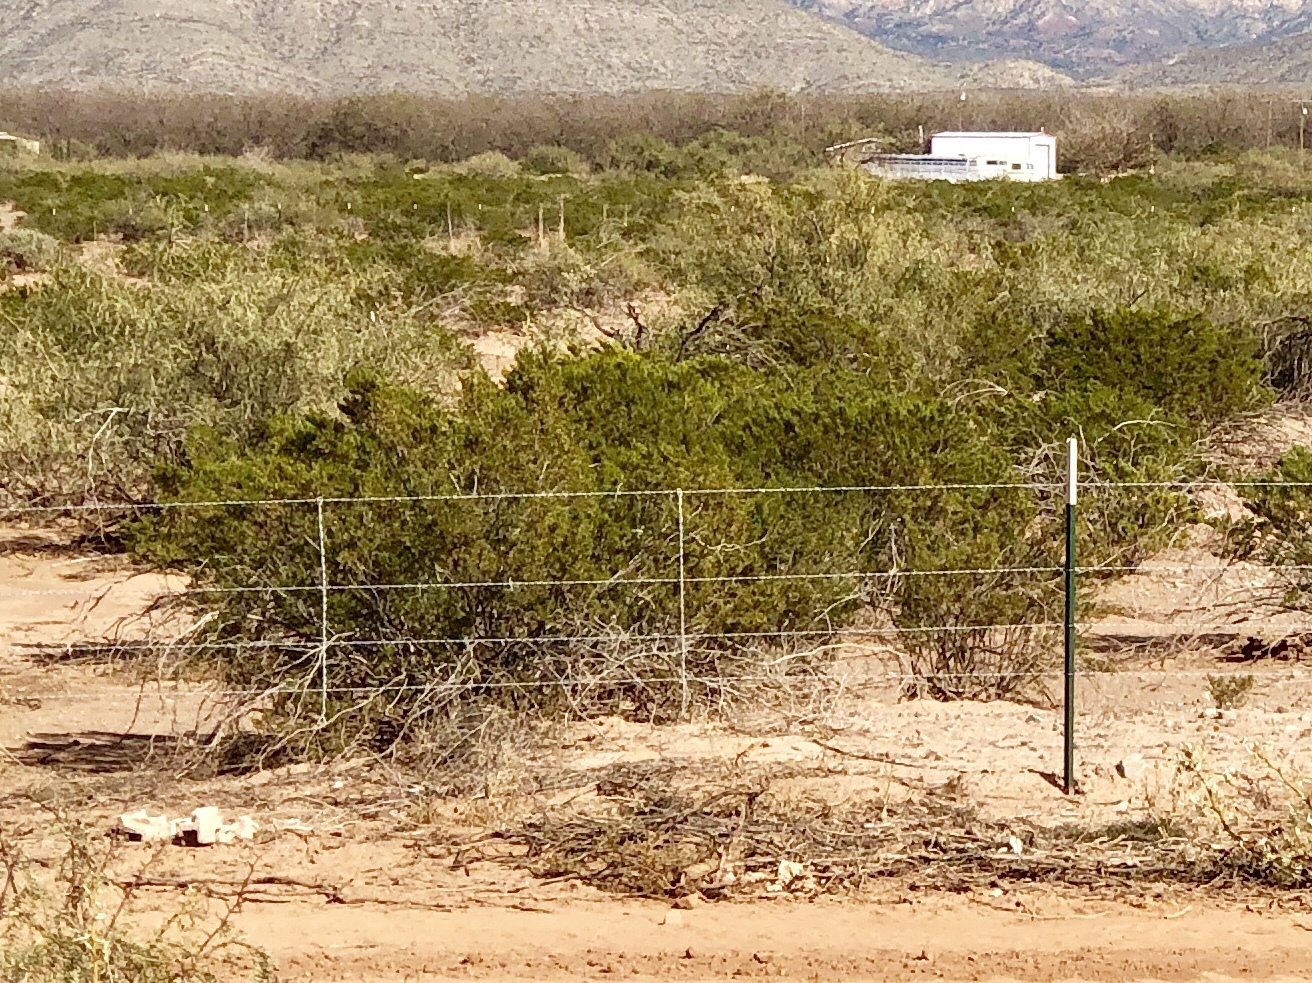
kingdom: Plantae
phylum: Tracheophyta
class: Magnoliopsida
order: Zygophyllales
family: Zygophyllaceae
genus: Larrea
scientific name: Larrea tridentata
